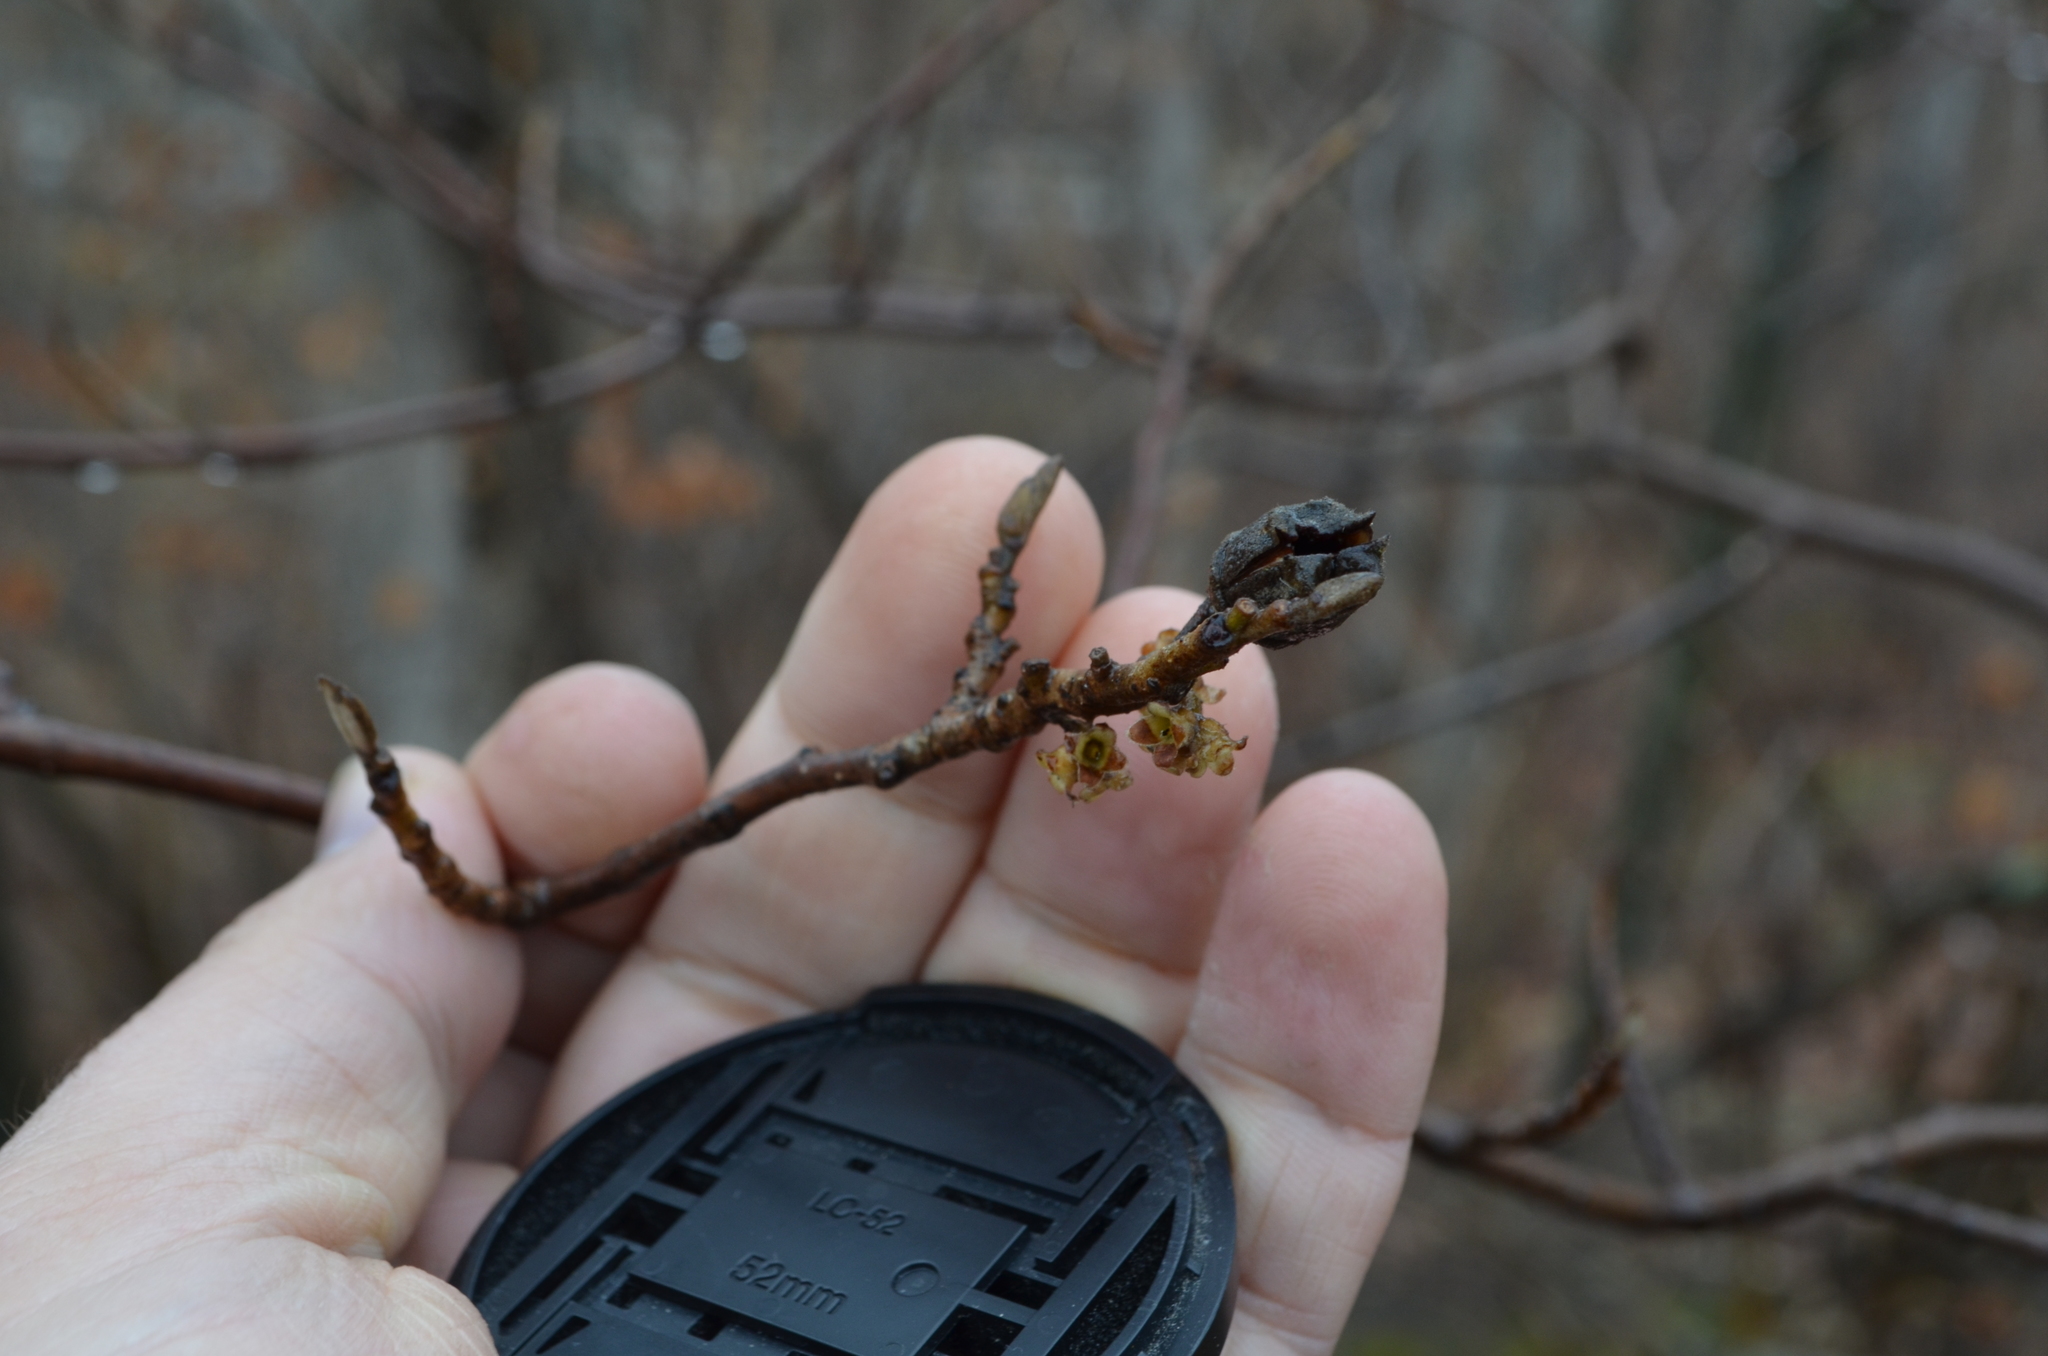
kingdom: Plantae
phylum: Tracheophyta
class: Magnoliopsida
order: Saxifragales
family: Hamamelidaceae
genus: Hamamelis
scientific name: Hamamelis virginiana
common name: Witch-hazel
